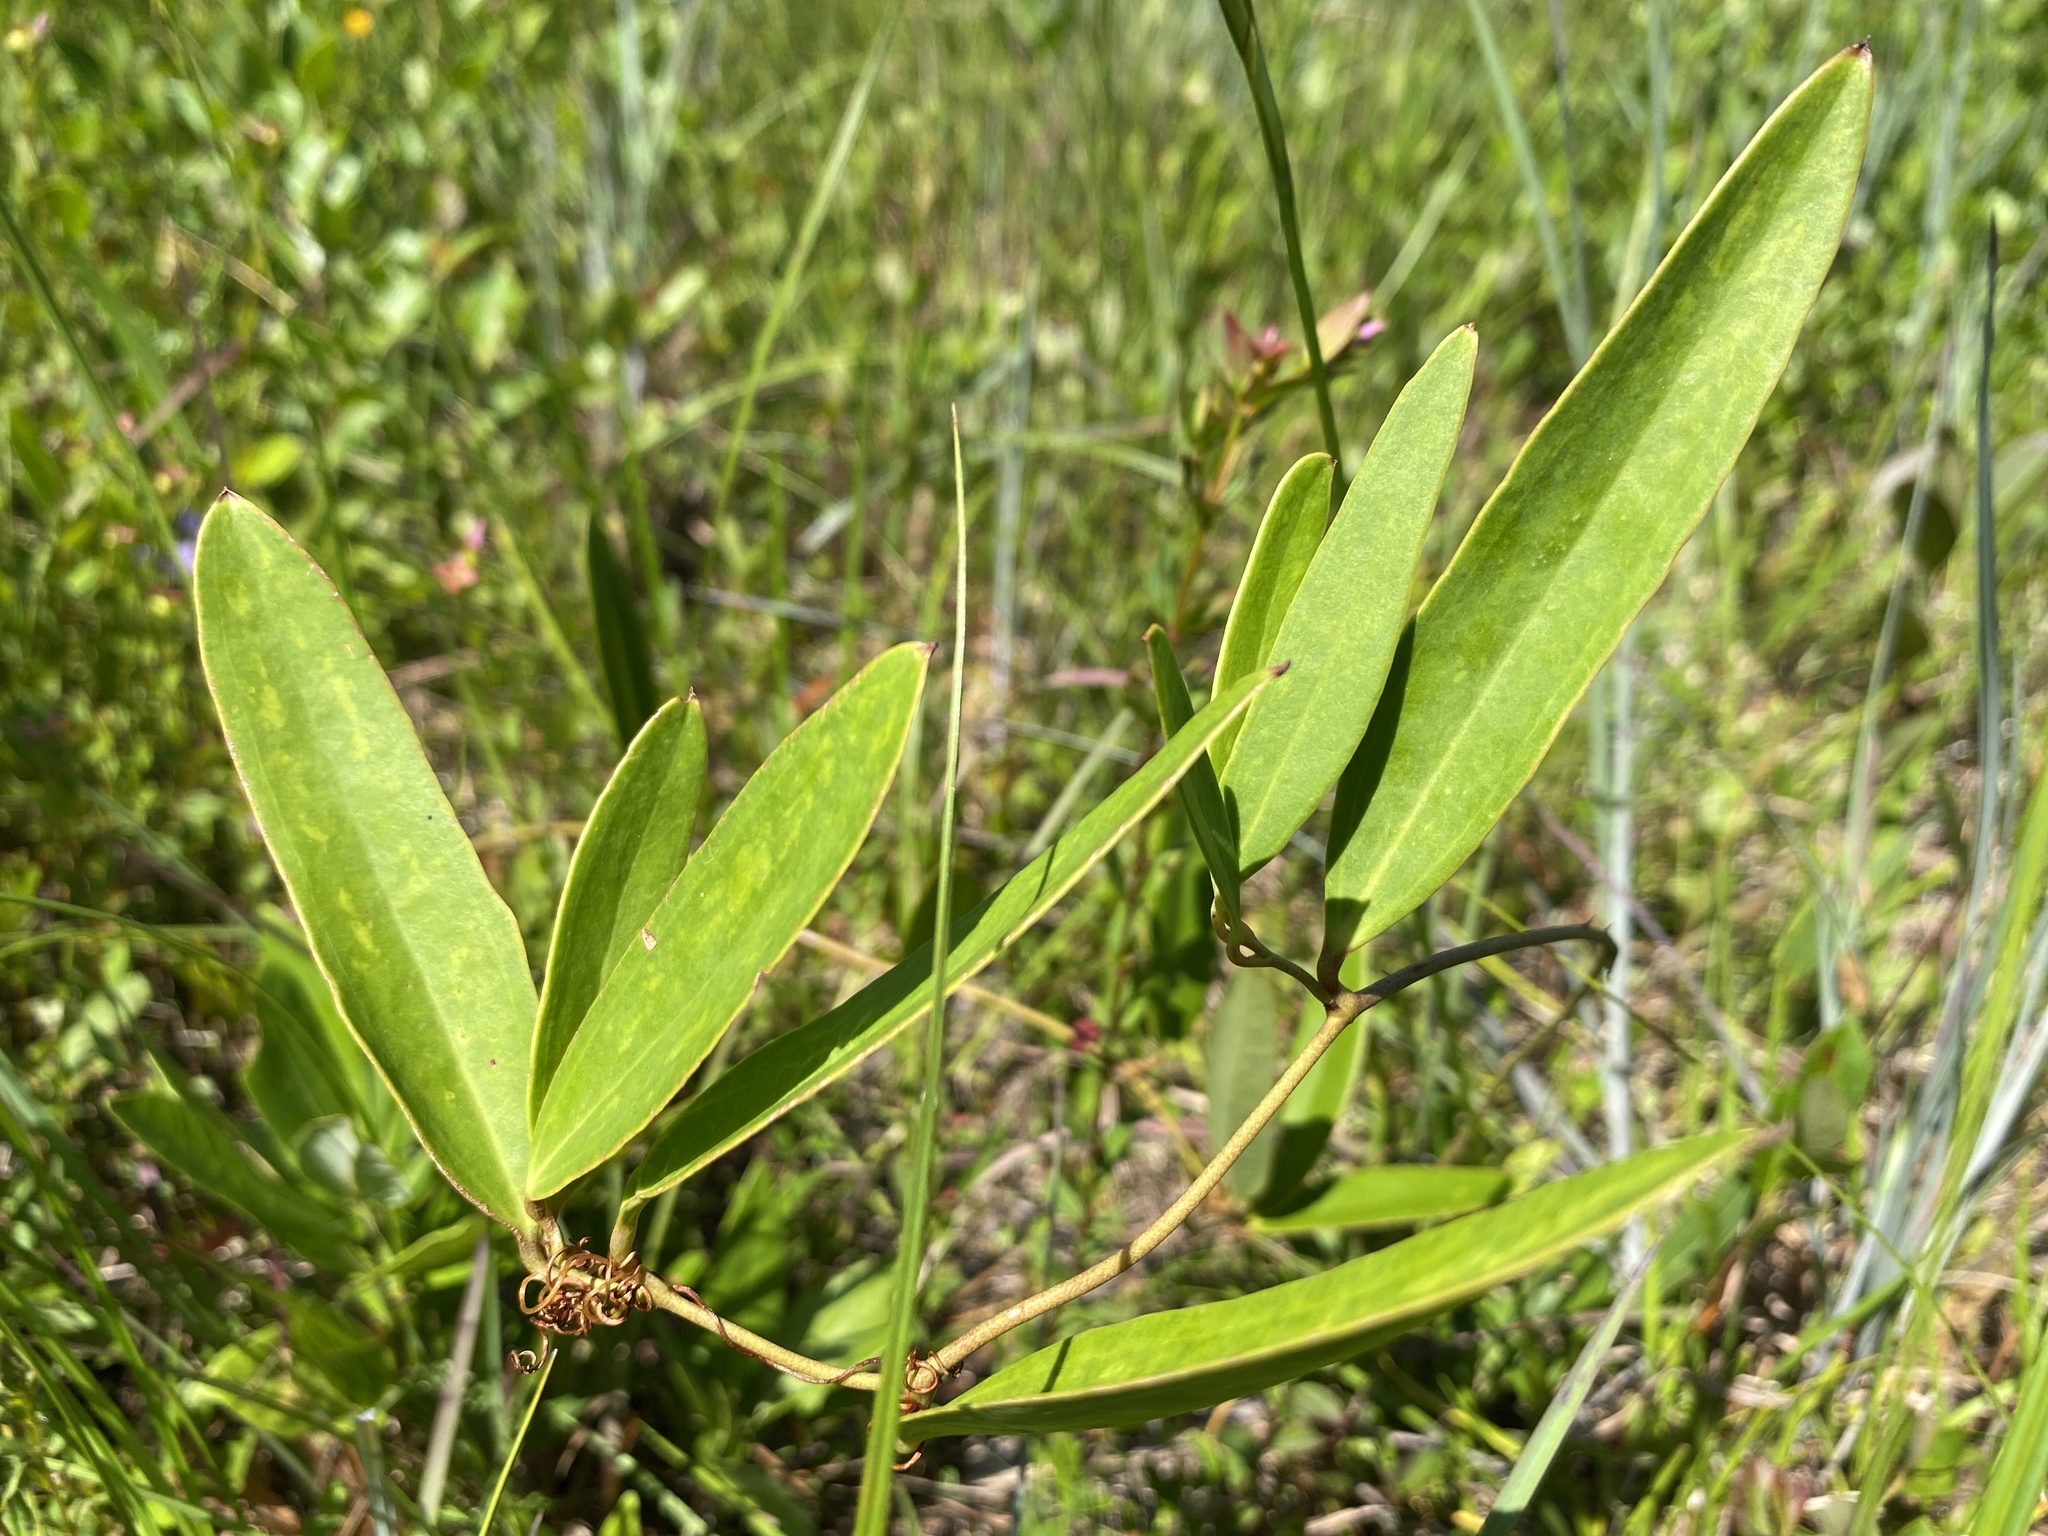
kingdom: Plantae
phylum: Tracheophyta
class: Liliopsida
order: Liliales
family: Smilacaceae
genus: Smilax
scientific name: Smilax laurifolia
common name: Bamboovine
